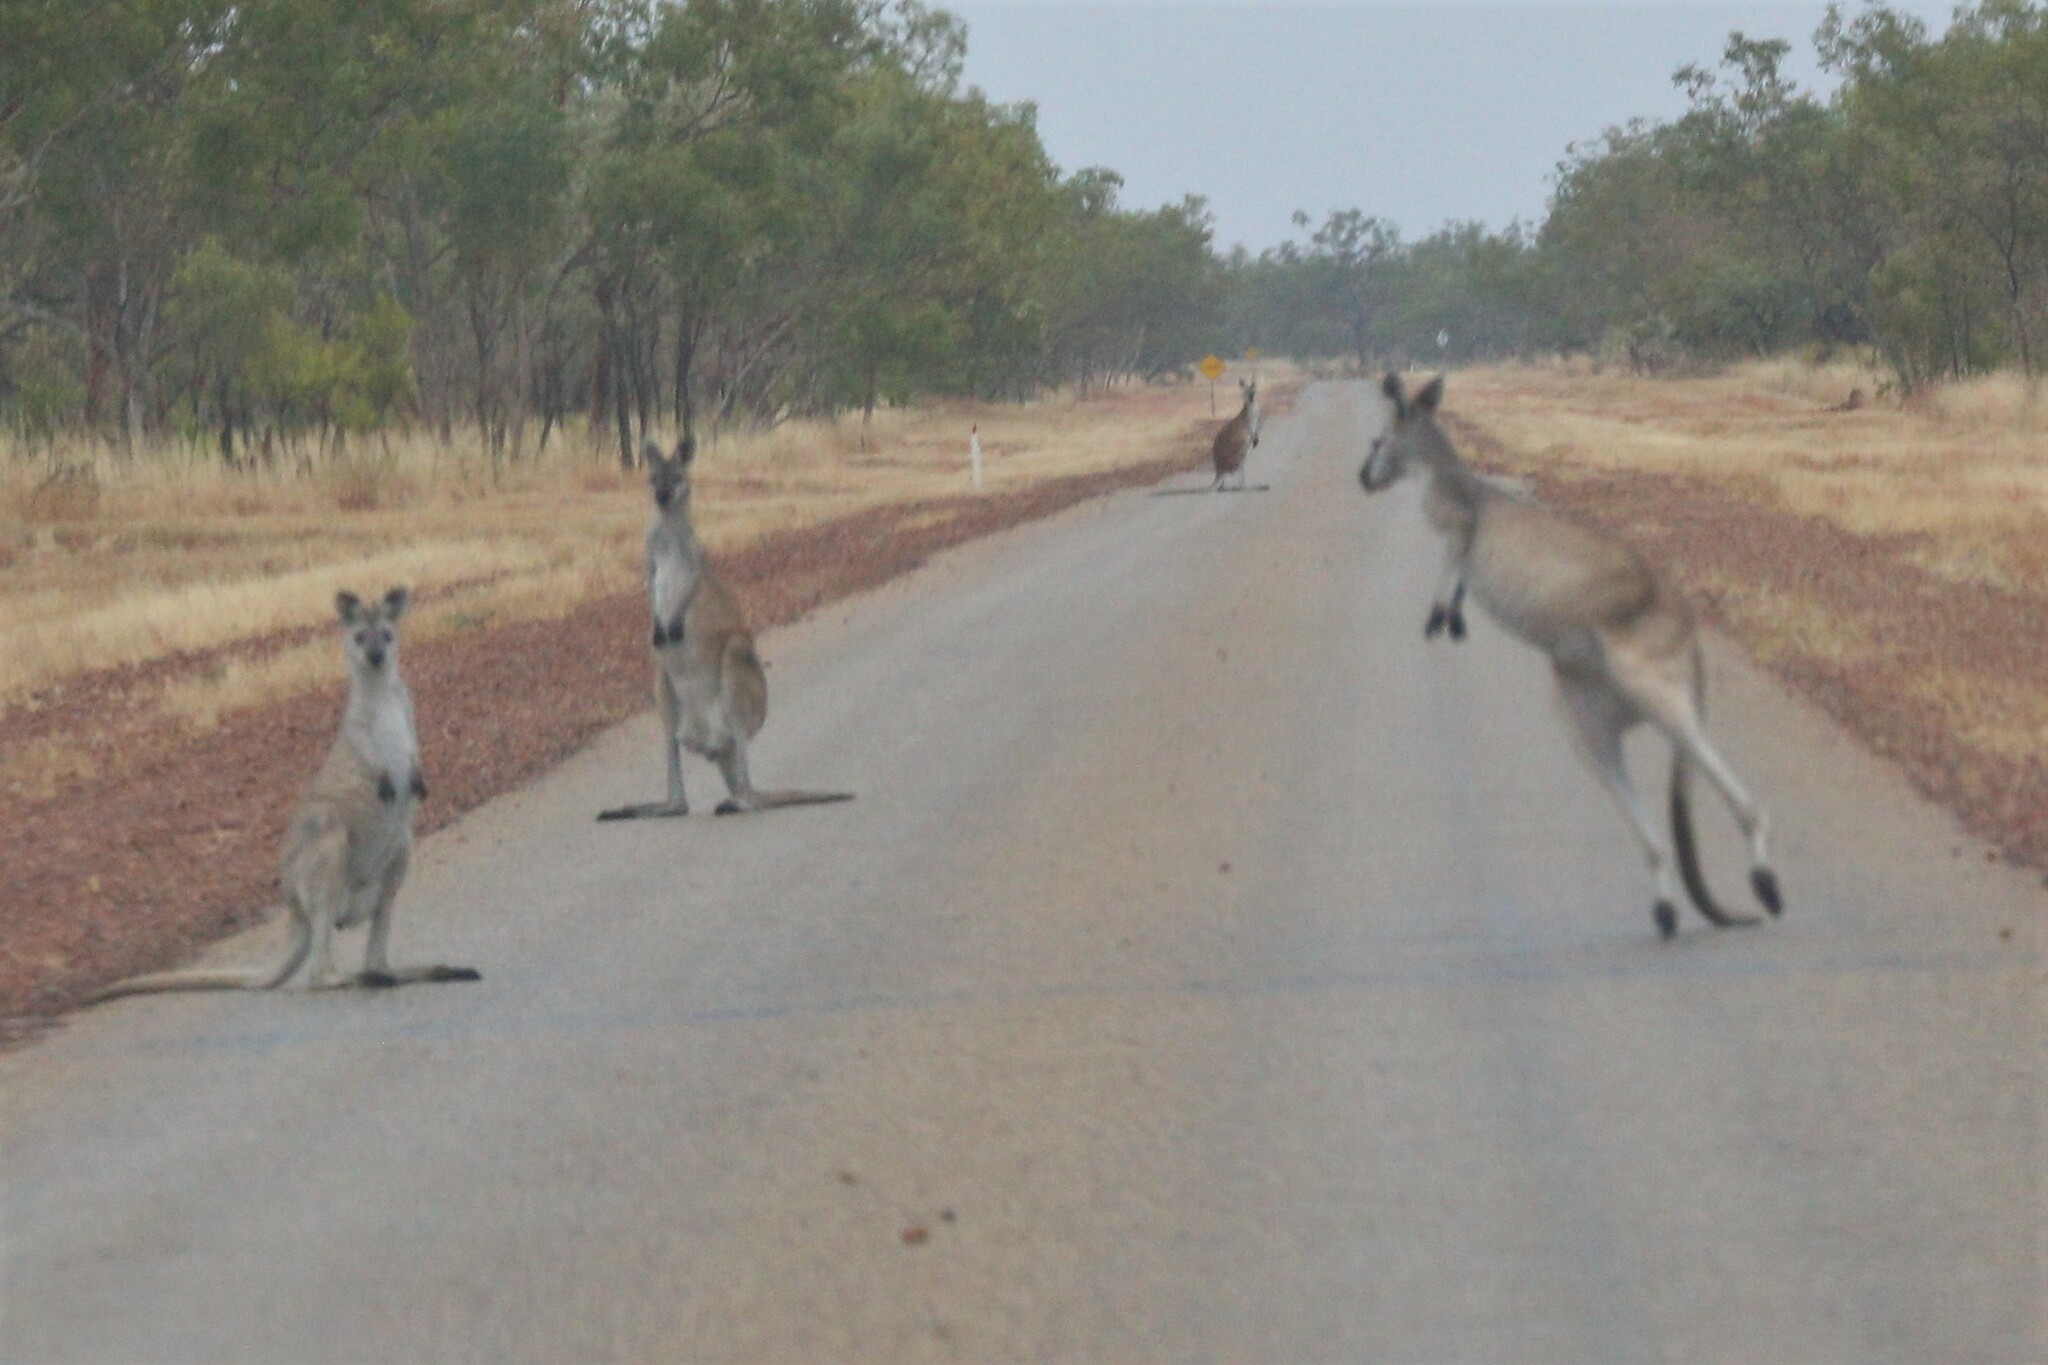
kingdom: Animalia
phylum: Chordata
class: Mammalia
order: Diprotodontia
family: Macropodidae
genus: Macropus
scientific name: Macropus antilopinus
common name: Antilopine kangaroo
